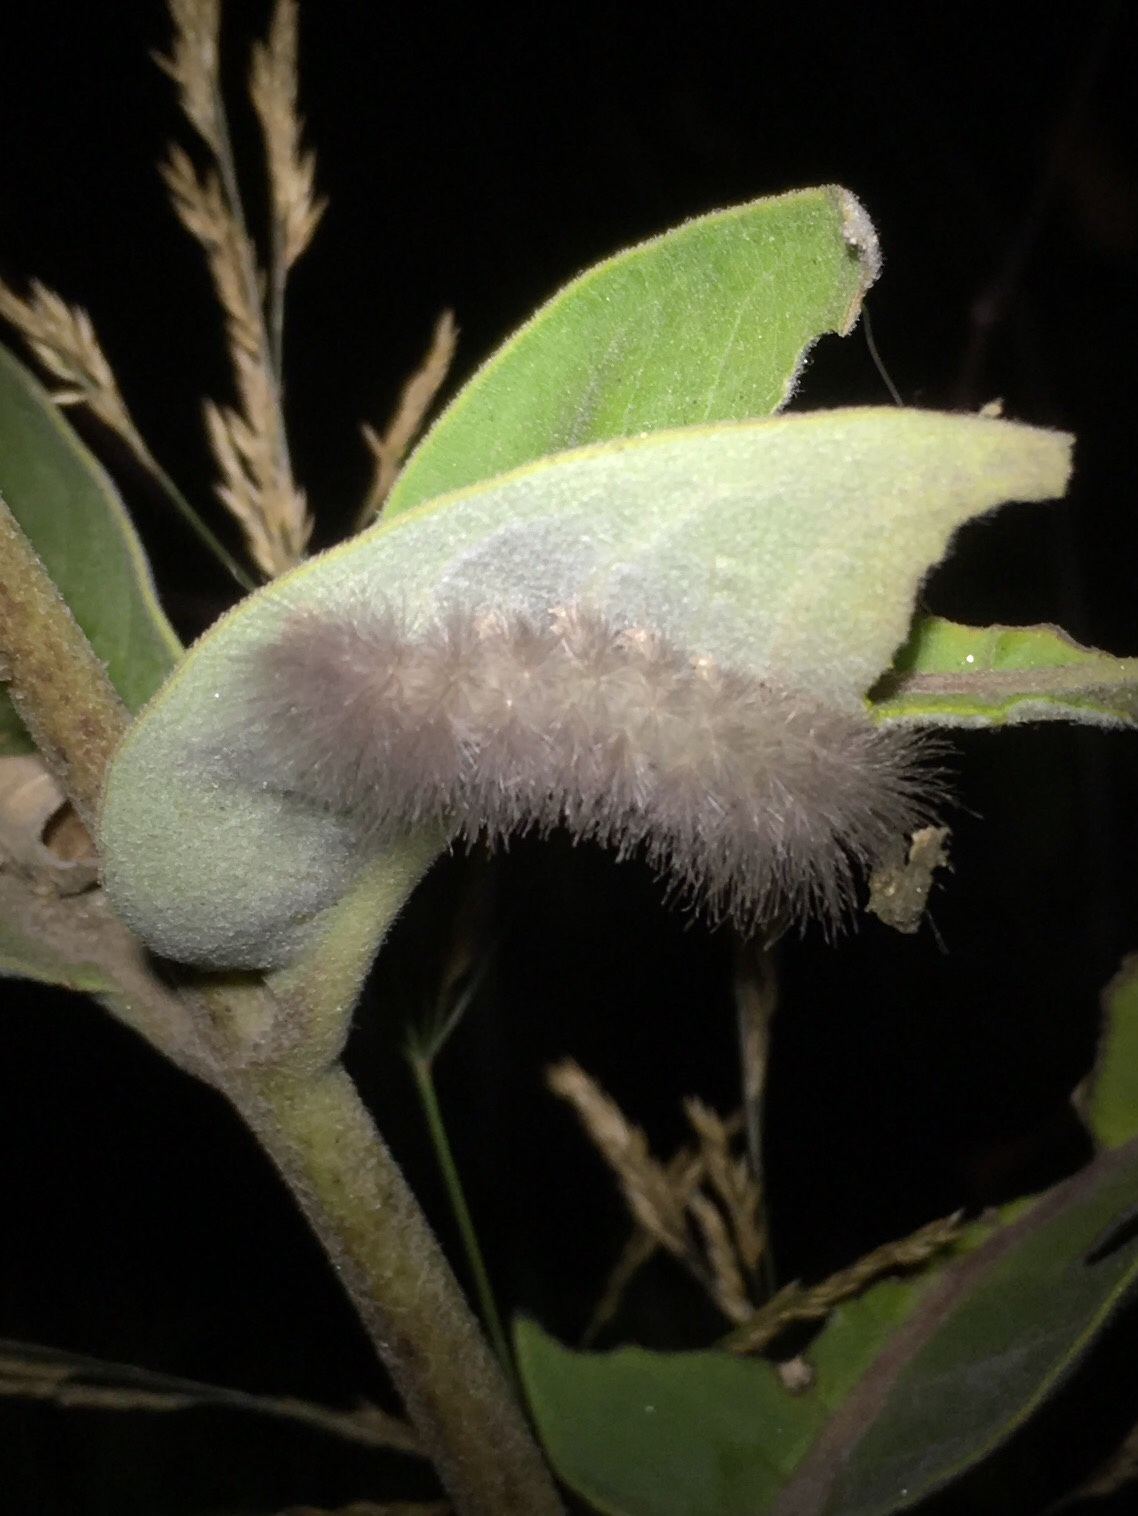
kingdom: Animalia
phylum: Arthropoda
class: Insecta
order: Lepidoptera
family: Erebidae
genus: Cycnia
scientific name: Cycnia tenera
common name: Delicate cycnia moth
